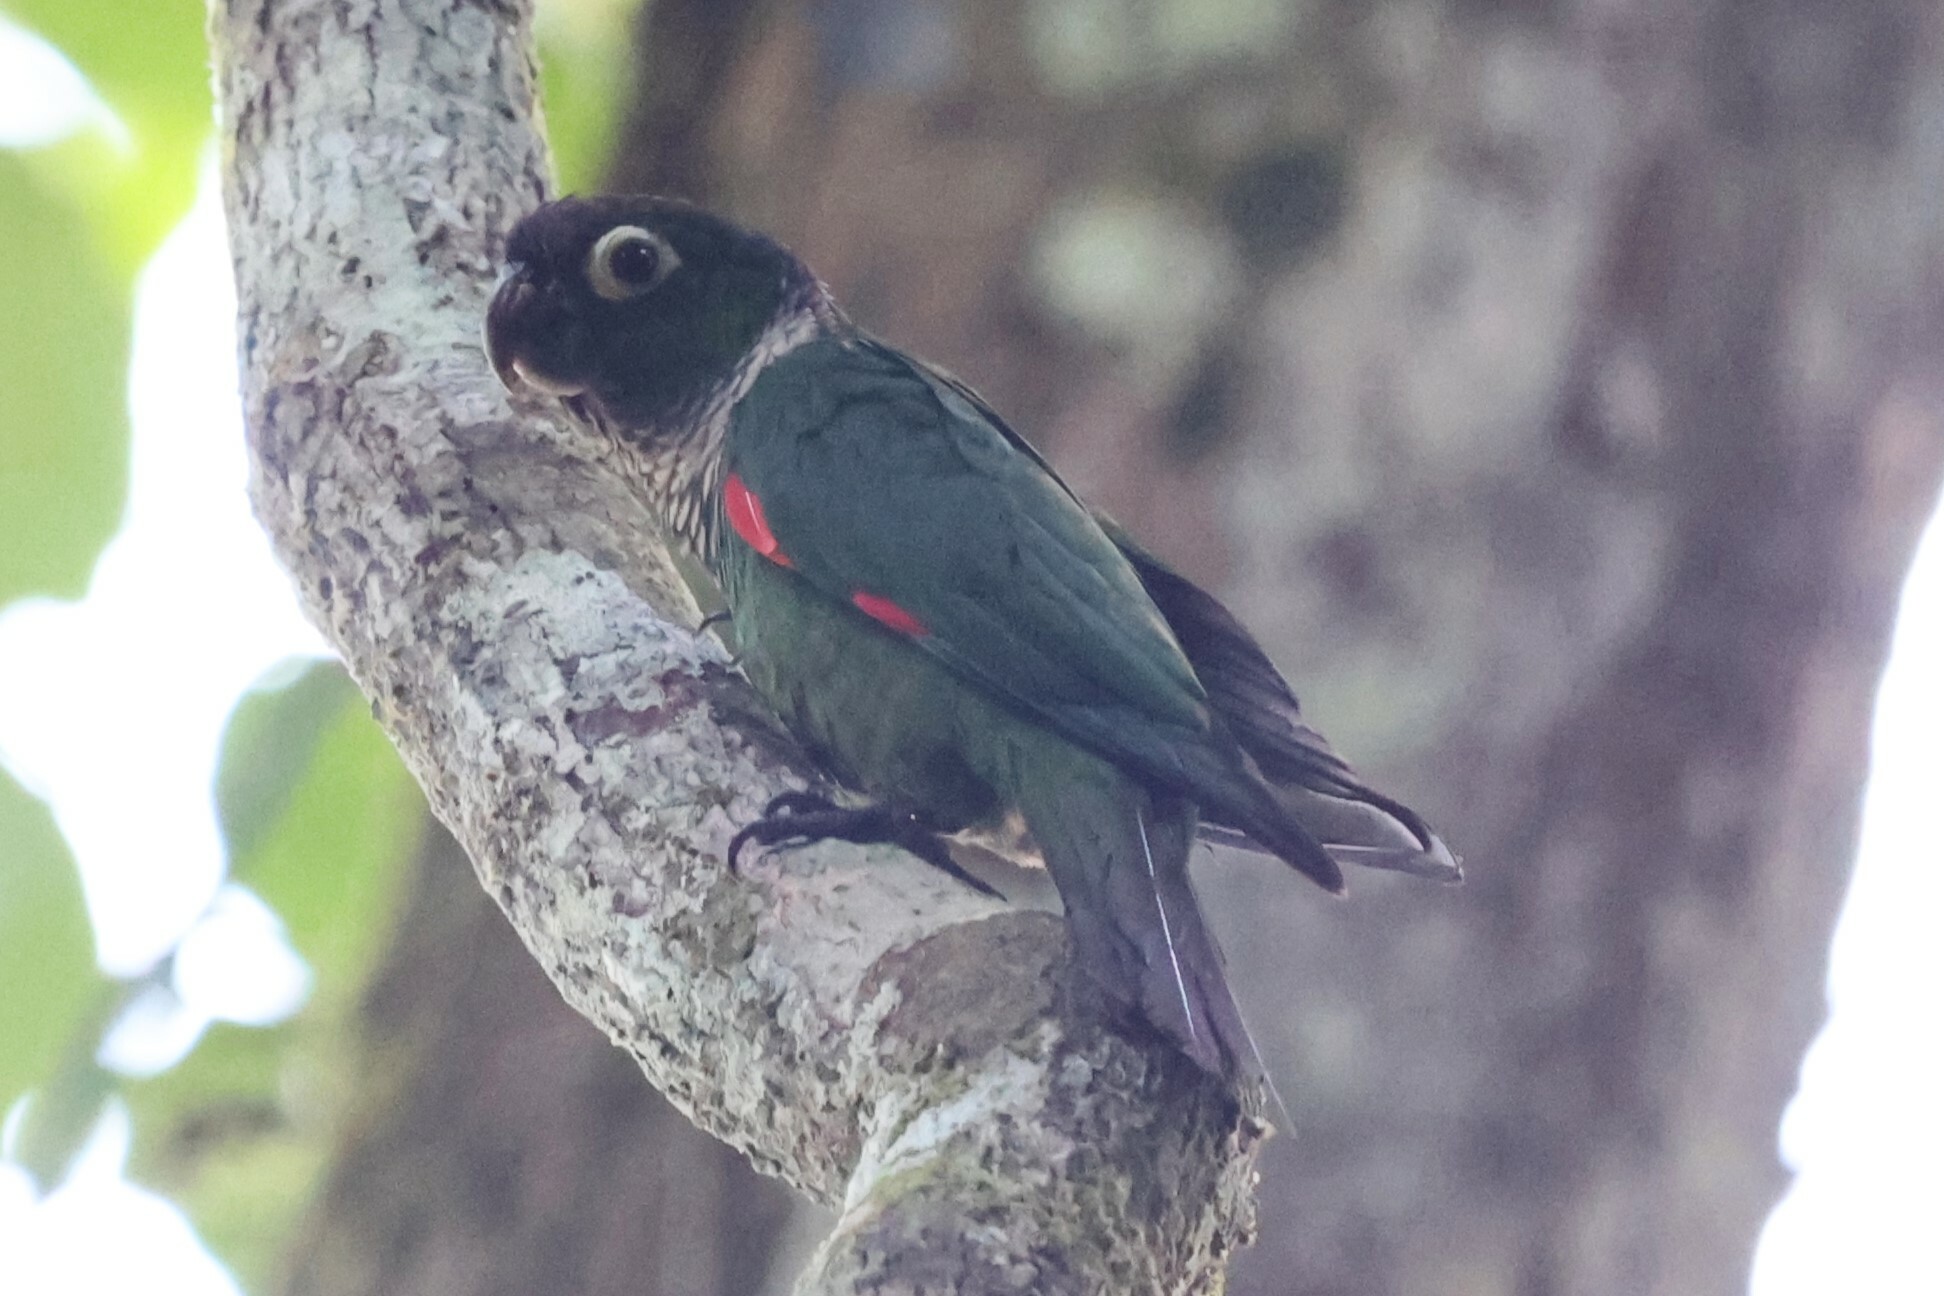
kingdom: Animalia
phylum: Chordata
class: Aves
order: Psittaciformes
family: Psittacidae
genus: Pyrrhura
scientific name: Pyrrhura melanura
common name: Maroon-tailed parakeet
